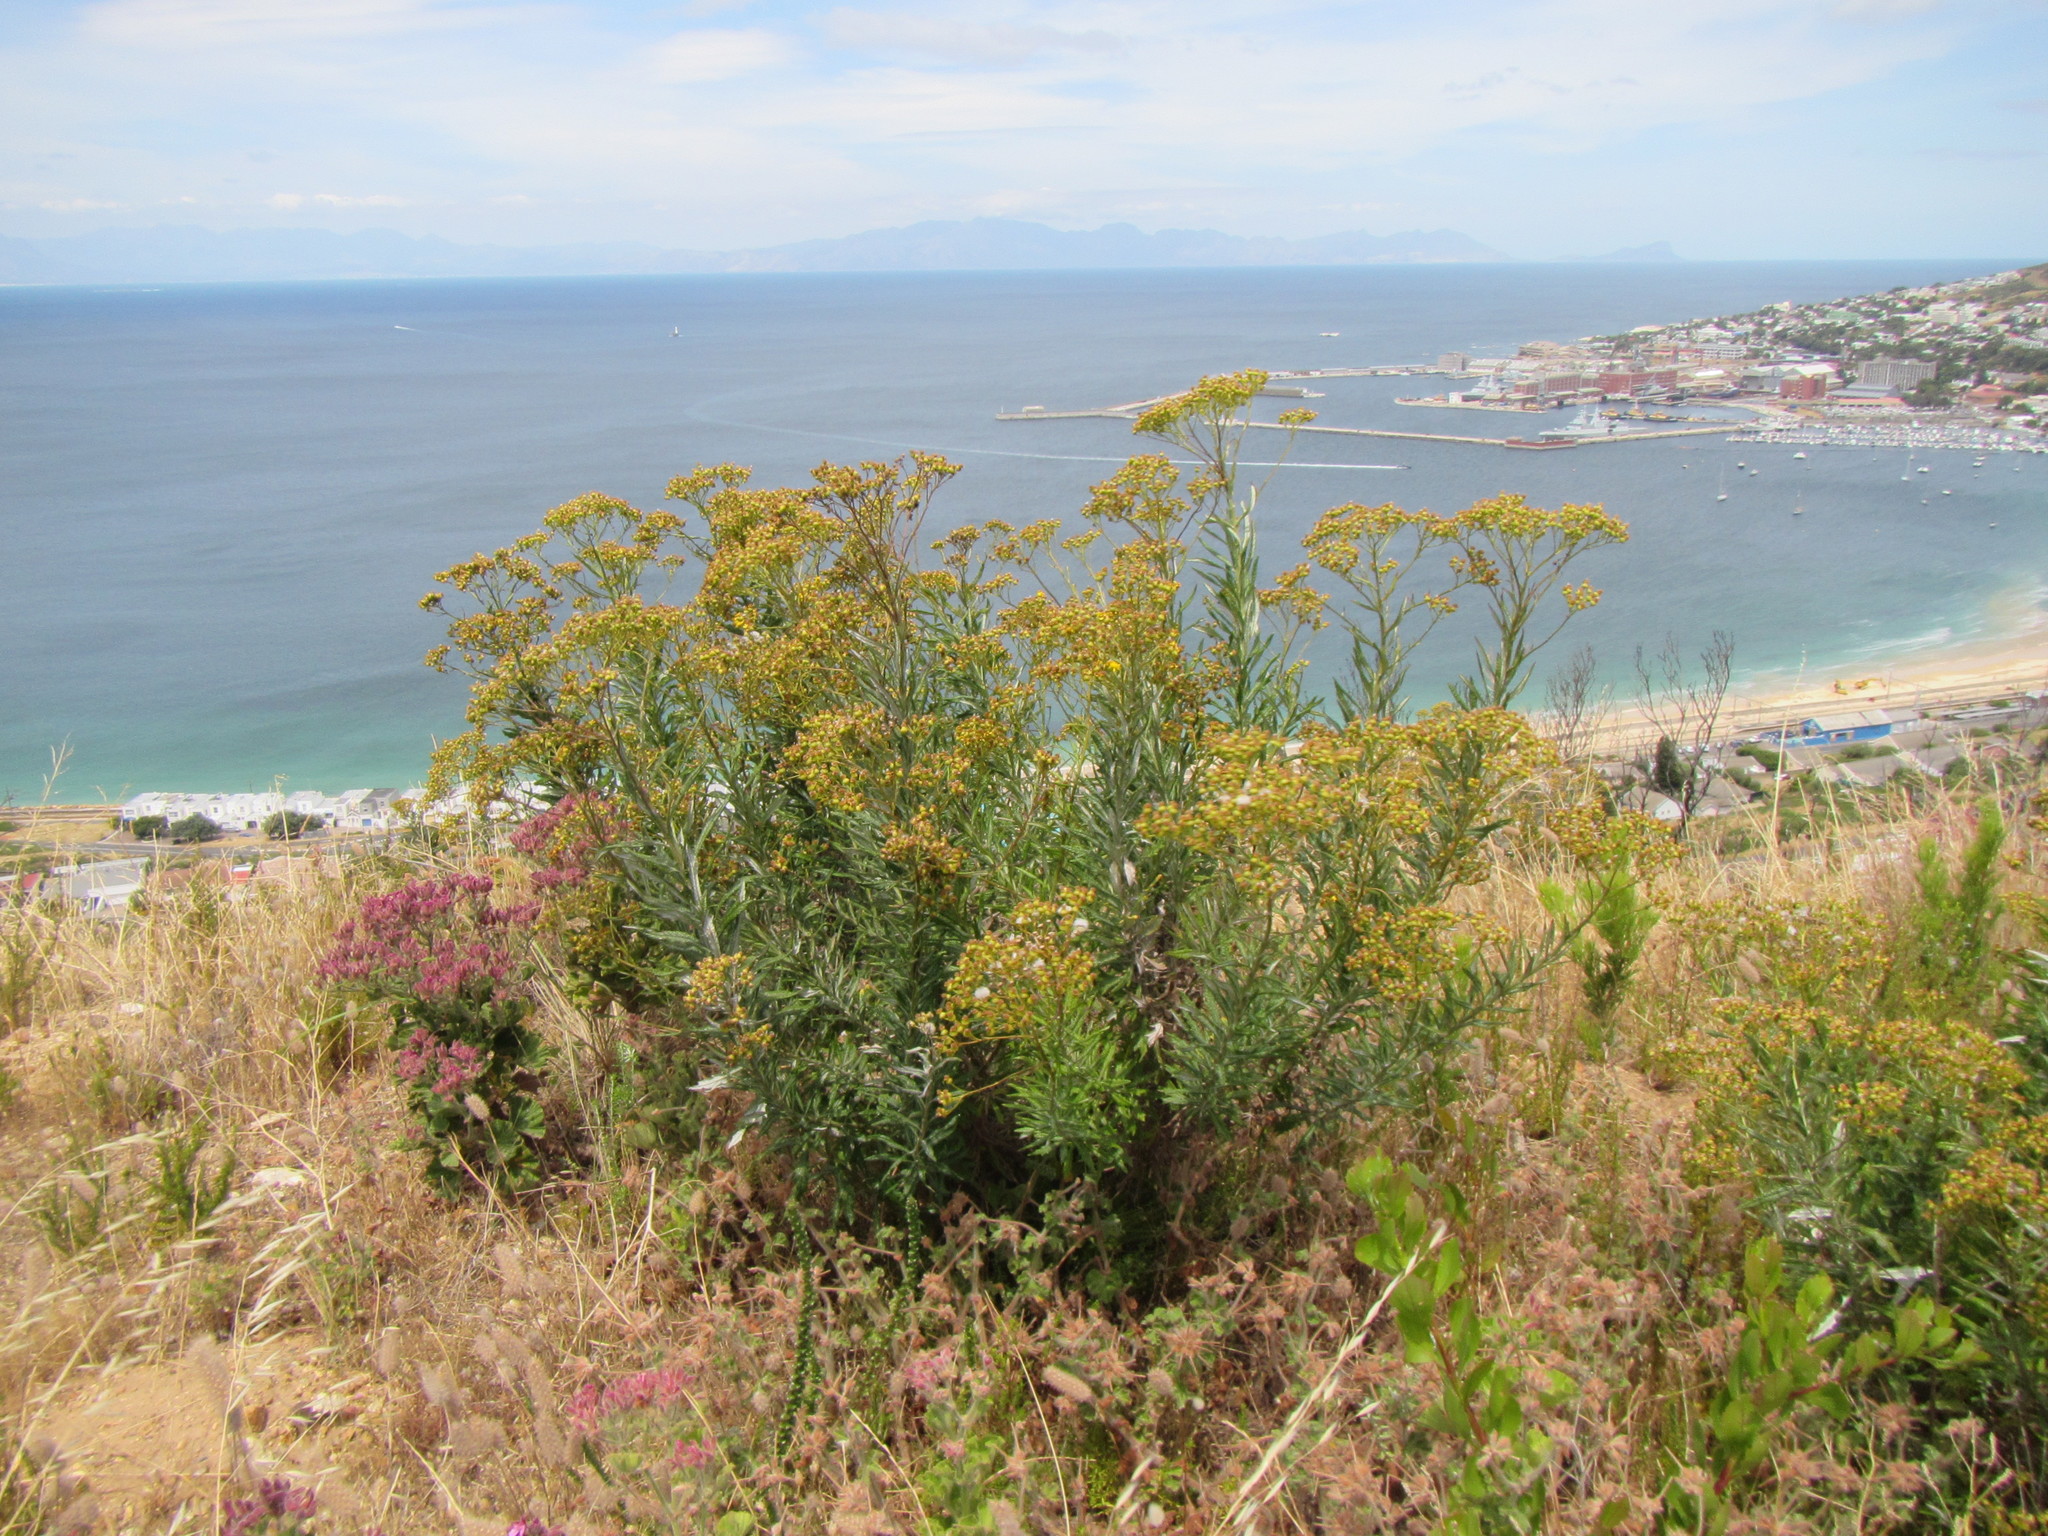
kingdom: Plantae
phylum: Tracheophyta
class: Magnoliopsida
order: Asterales
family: Asteraceae
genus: Senecio
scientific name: Senecio pterophorus
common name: Shoddy ragwort
